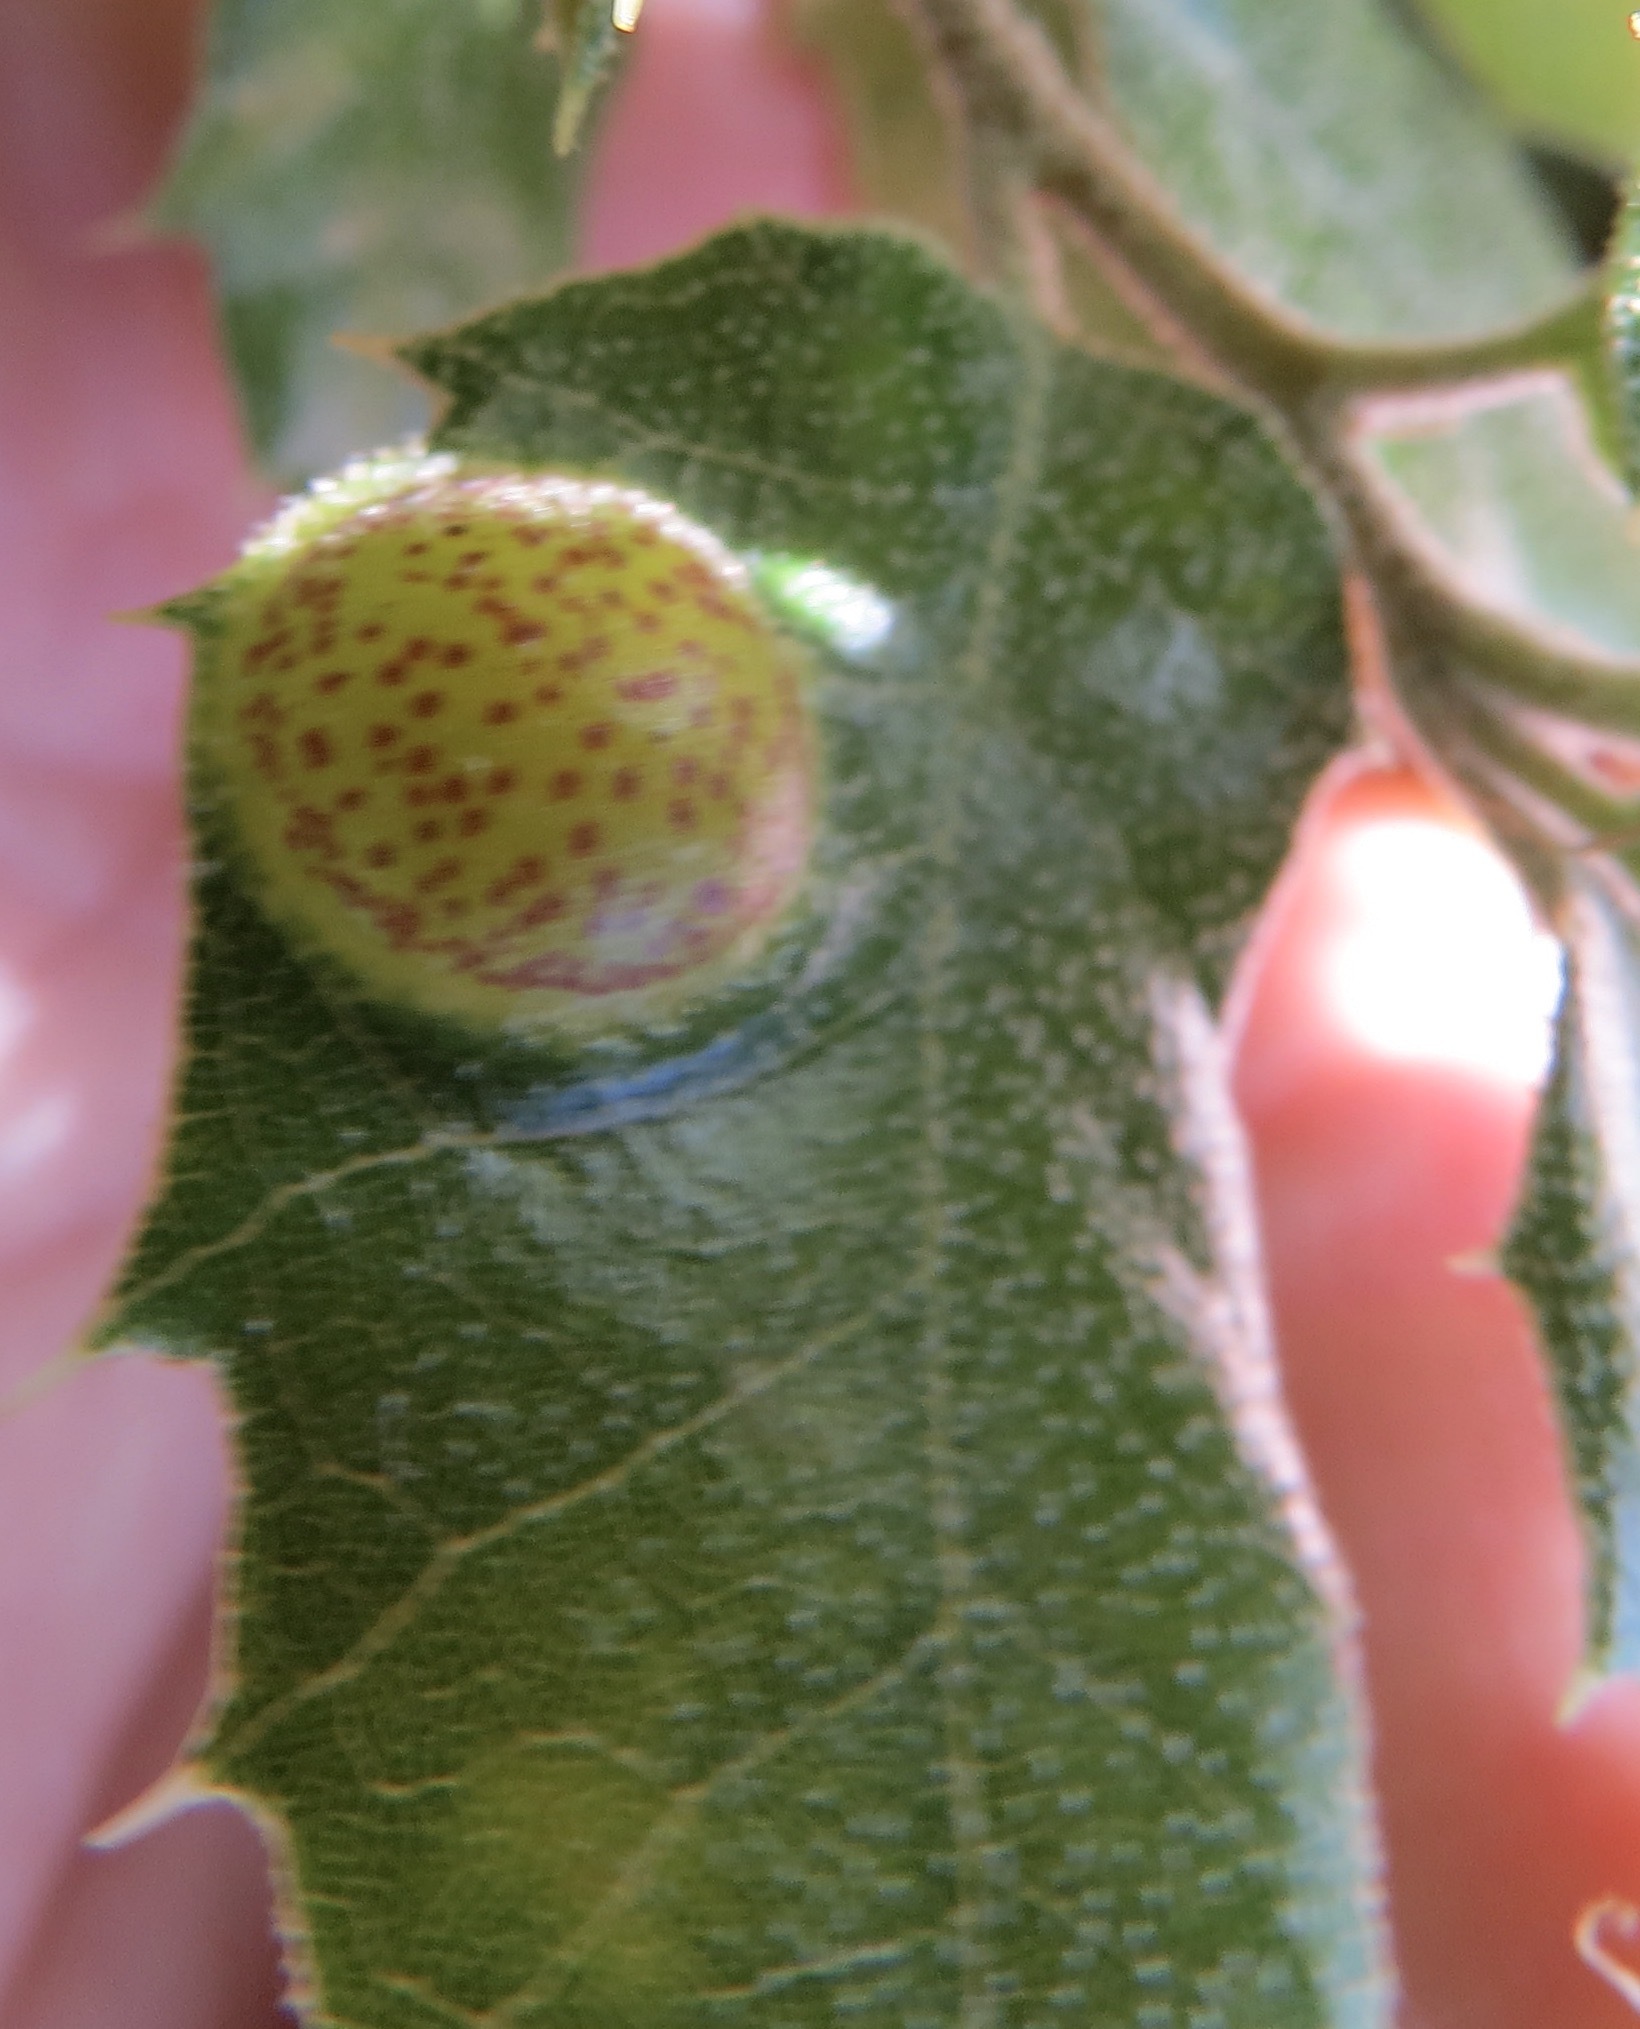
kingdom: Animalia
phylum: Arthropoda
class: Insecta
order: Hymenoptera
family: Cynipidae
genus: Heteroecus
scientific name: Heteroecus
